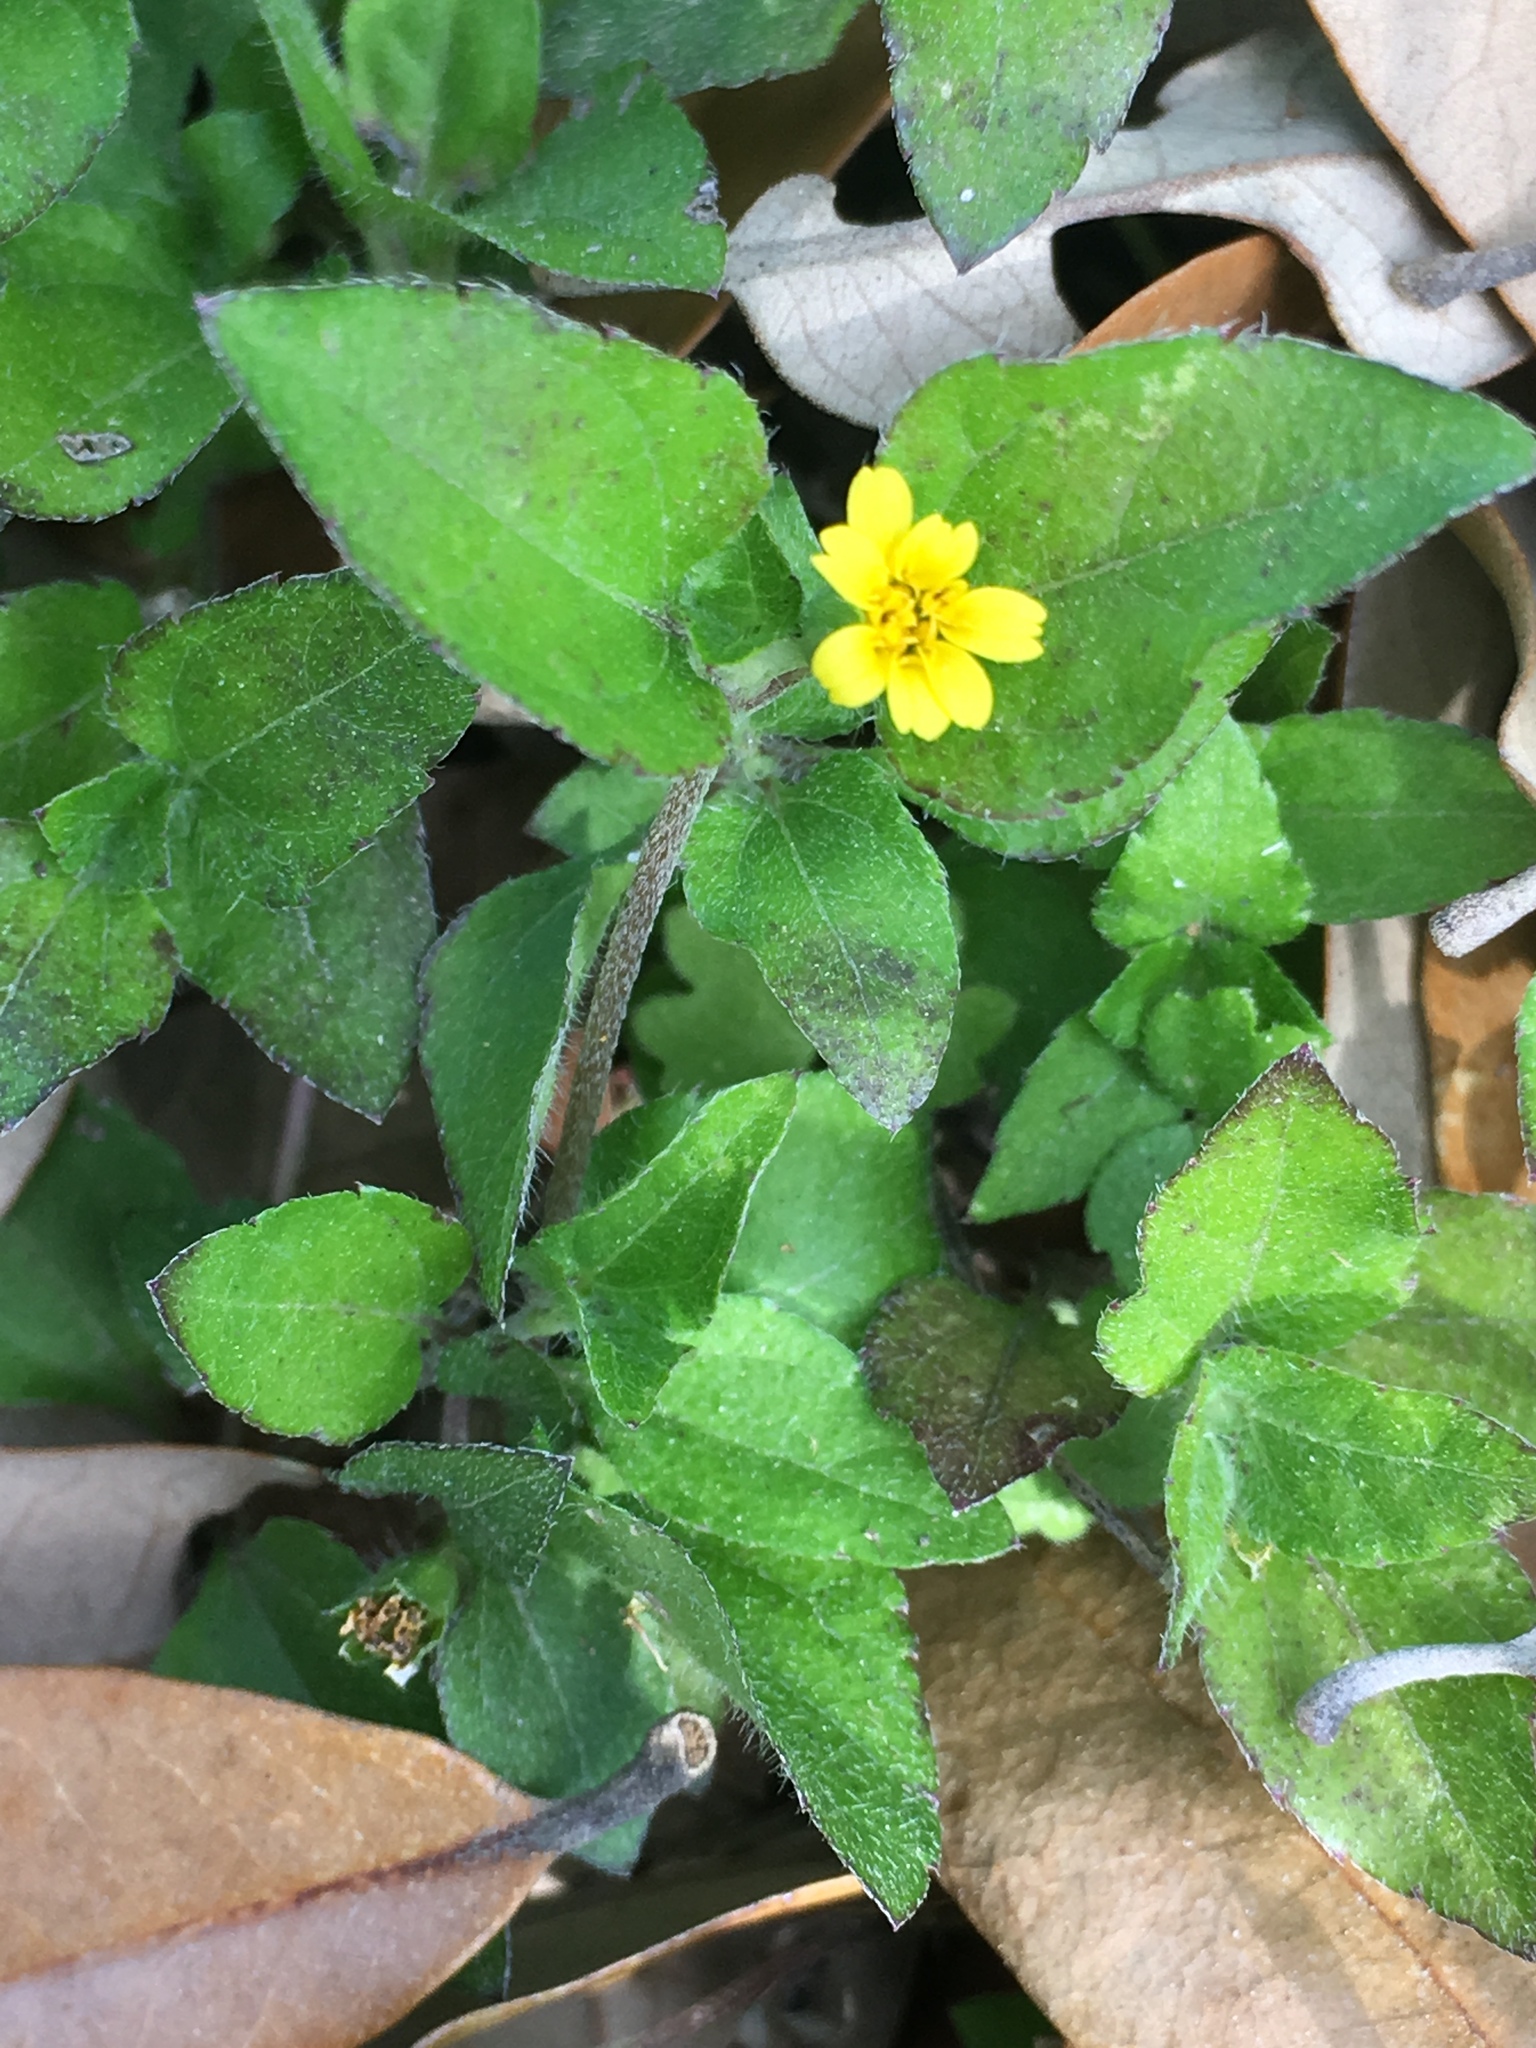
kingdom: Plantae
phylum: Tracheophyta
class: Magnoliopsida
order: Asterales
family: Asteraceae
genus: Calyptocarpus
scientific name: Calyptocarpus vialis
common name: Straggler daisy
